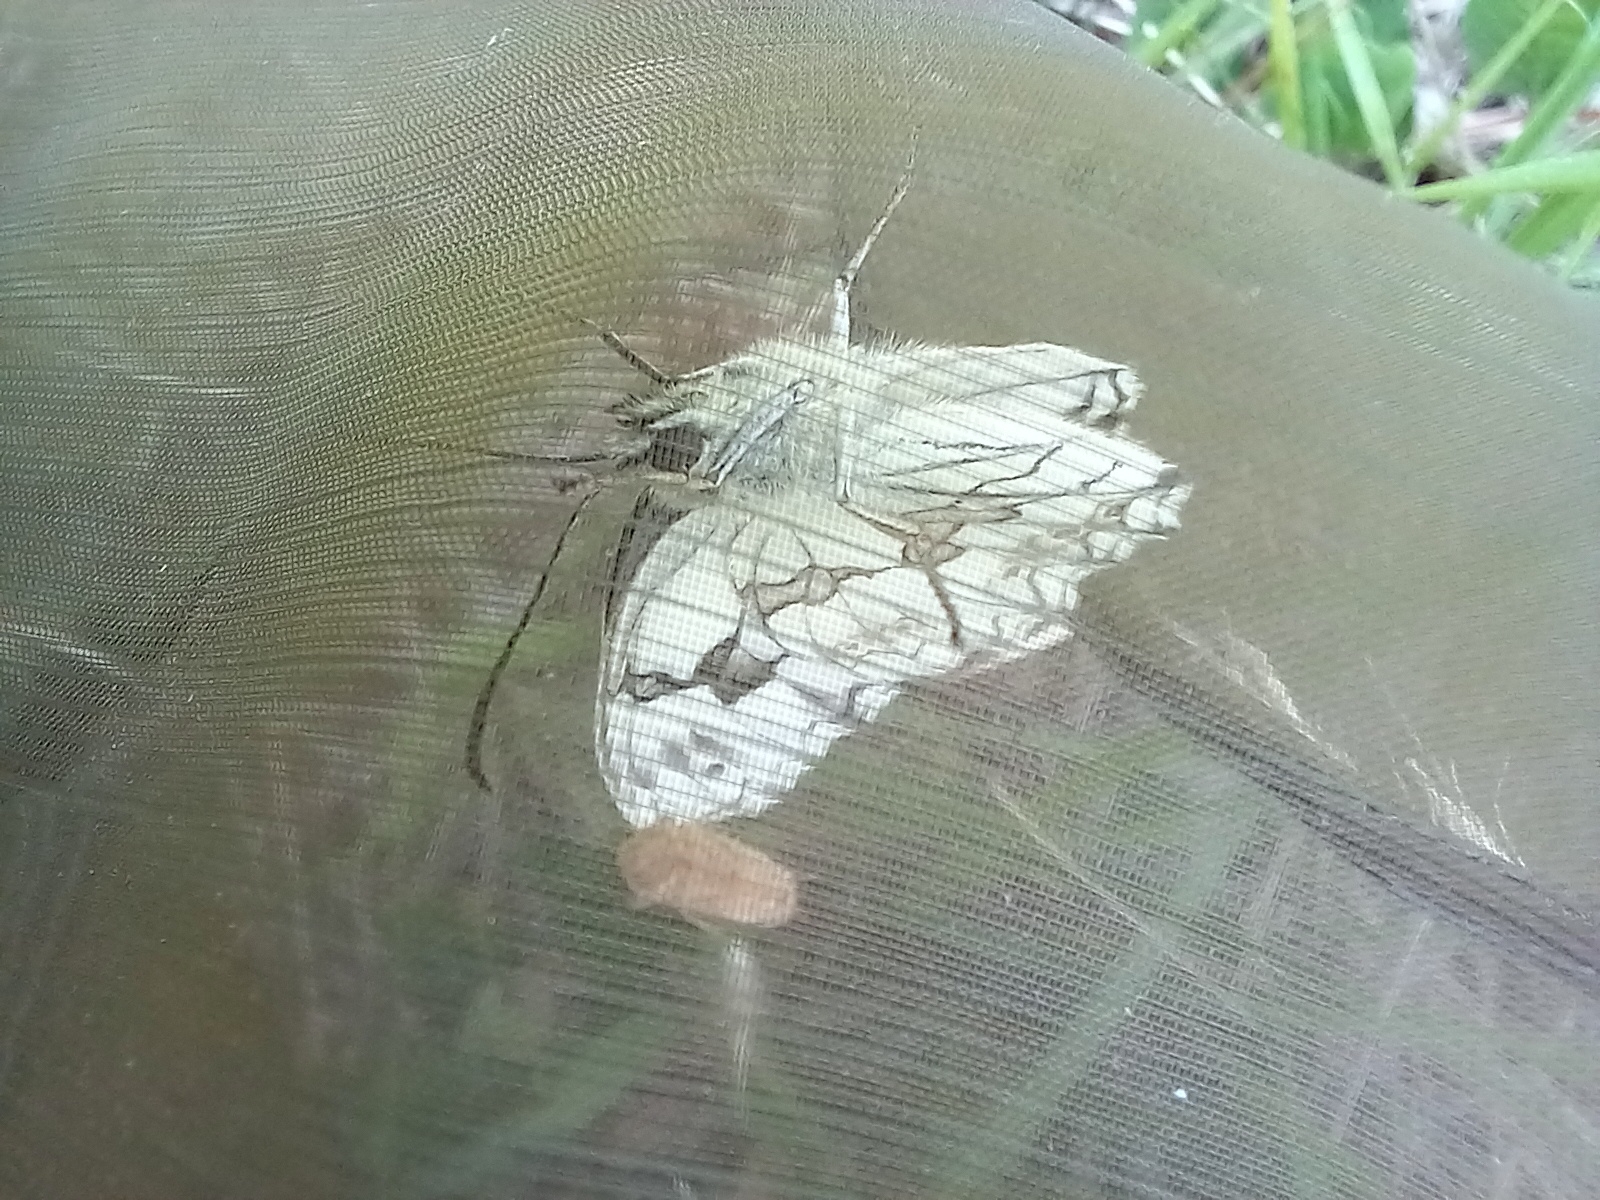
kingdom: Animalia
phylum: Arthropoda
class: Insecta
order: Lepidoptera
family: Nymphalidae
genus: Melanargia
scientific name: Melanargia lachesis
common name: Iberian marbled white
